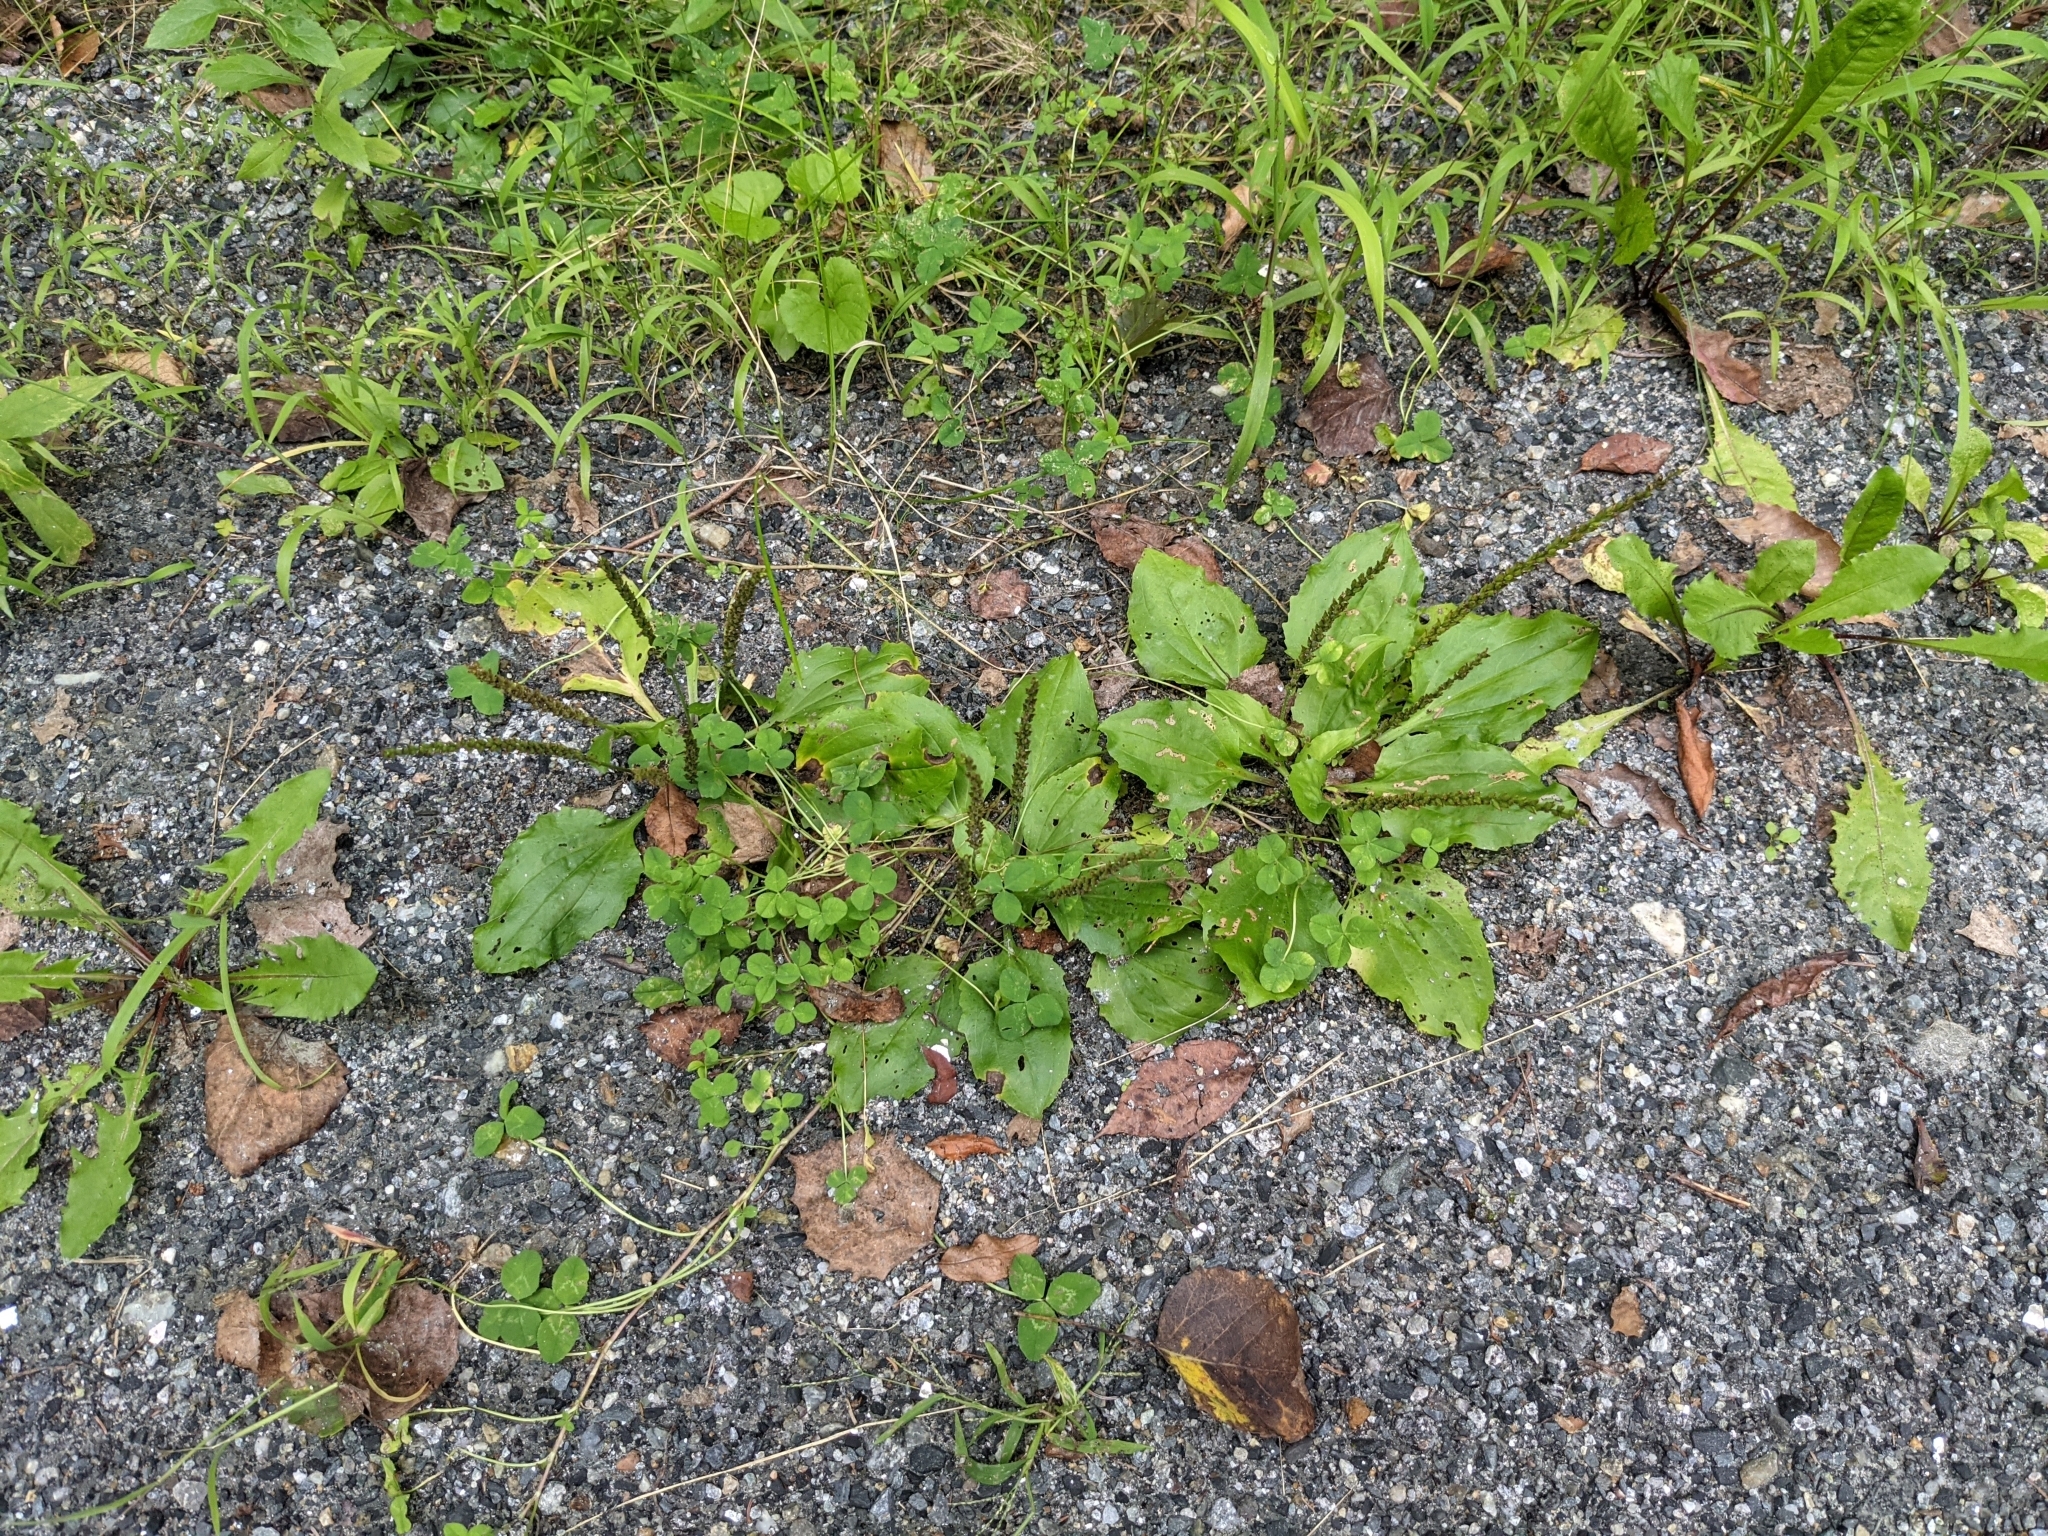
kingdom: Plantae
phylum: Tracheophyta
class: Magnoliopsida
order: Lamiales
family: Plantaginaceae
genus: Plantago
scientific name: Plantago rugelii
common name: American plantain
